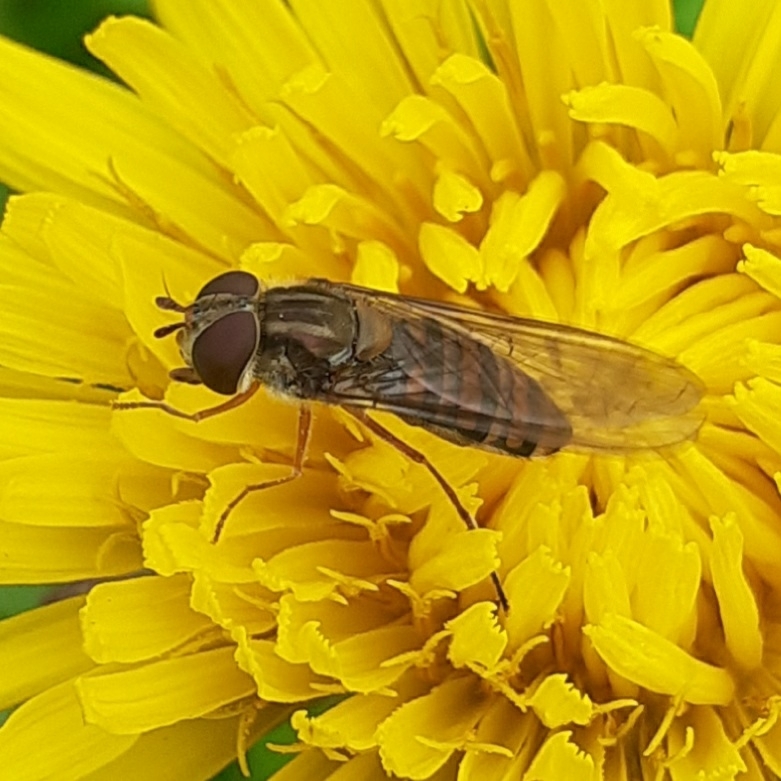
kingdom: Animalia
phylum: Arthropoda
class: Insecta
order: Diptera
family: Syrphidae
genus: Episyrphus
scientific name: Episyrphus balteatus
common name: Marmalade hoverfly
